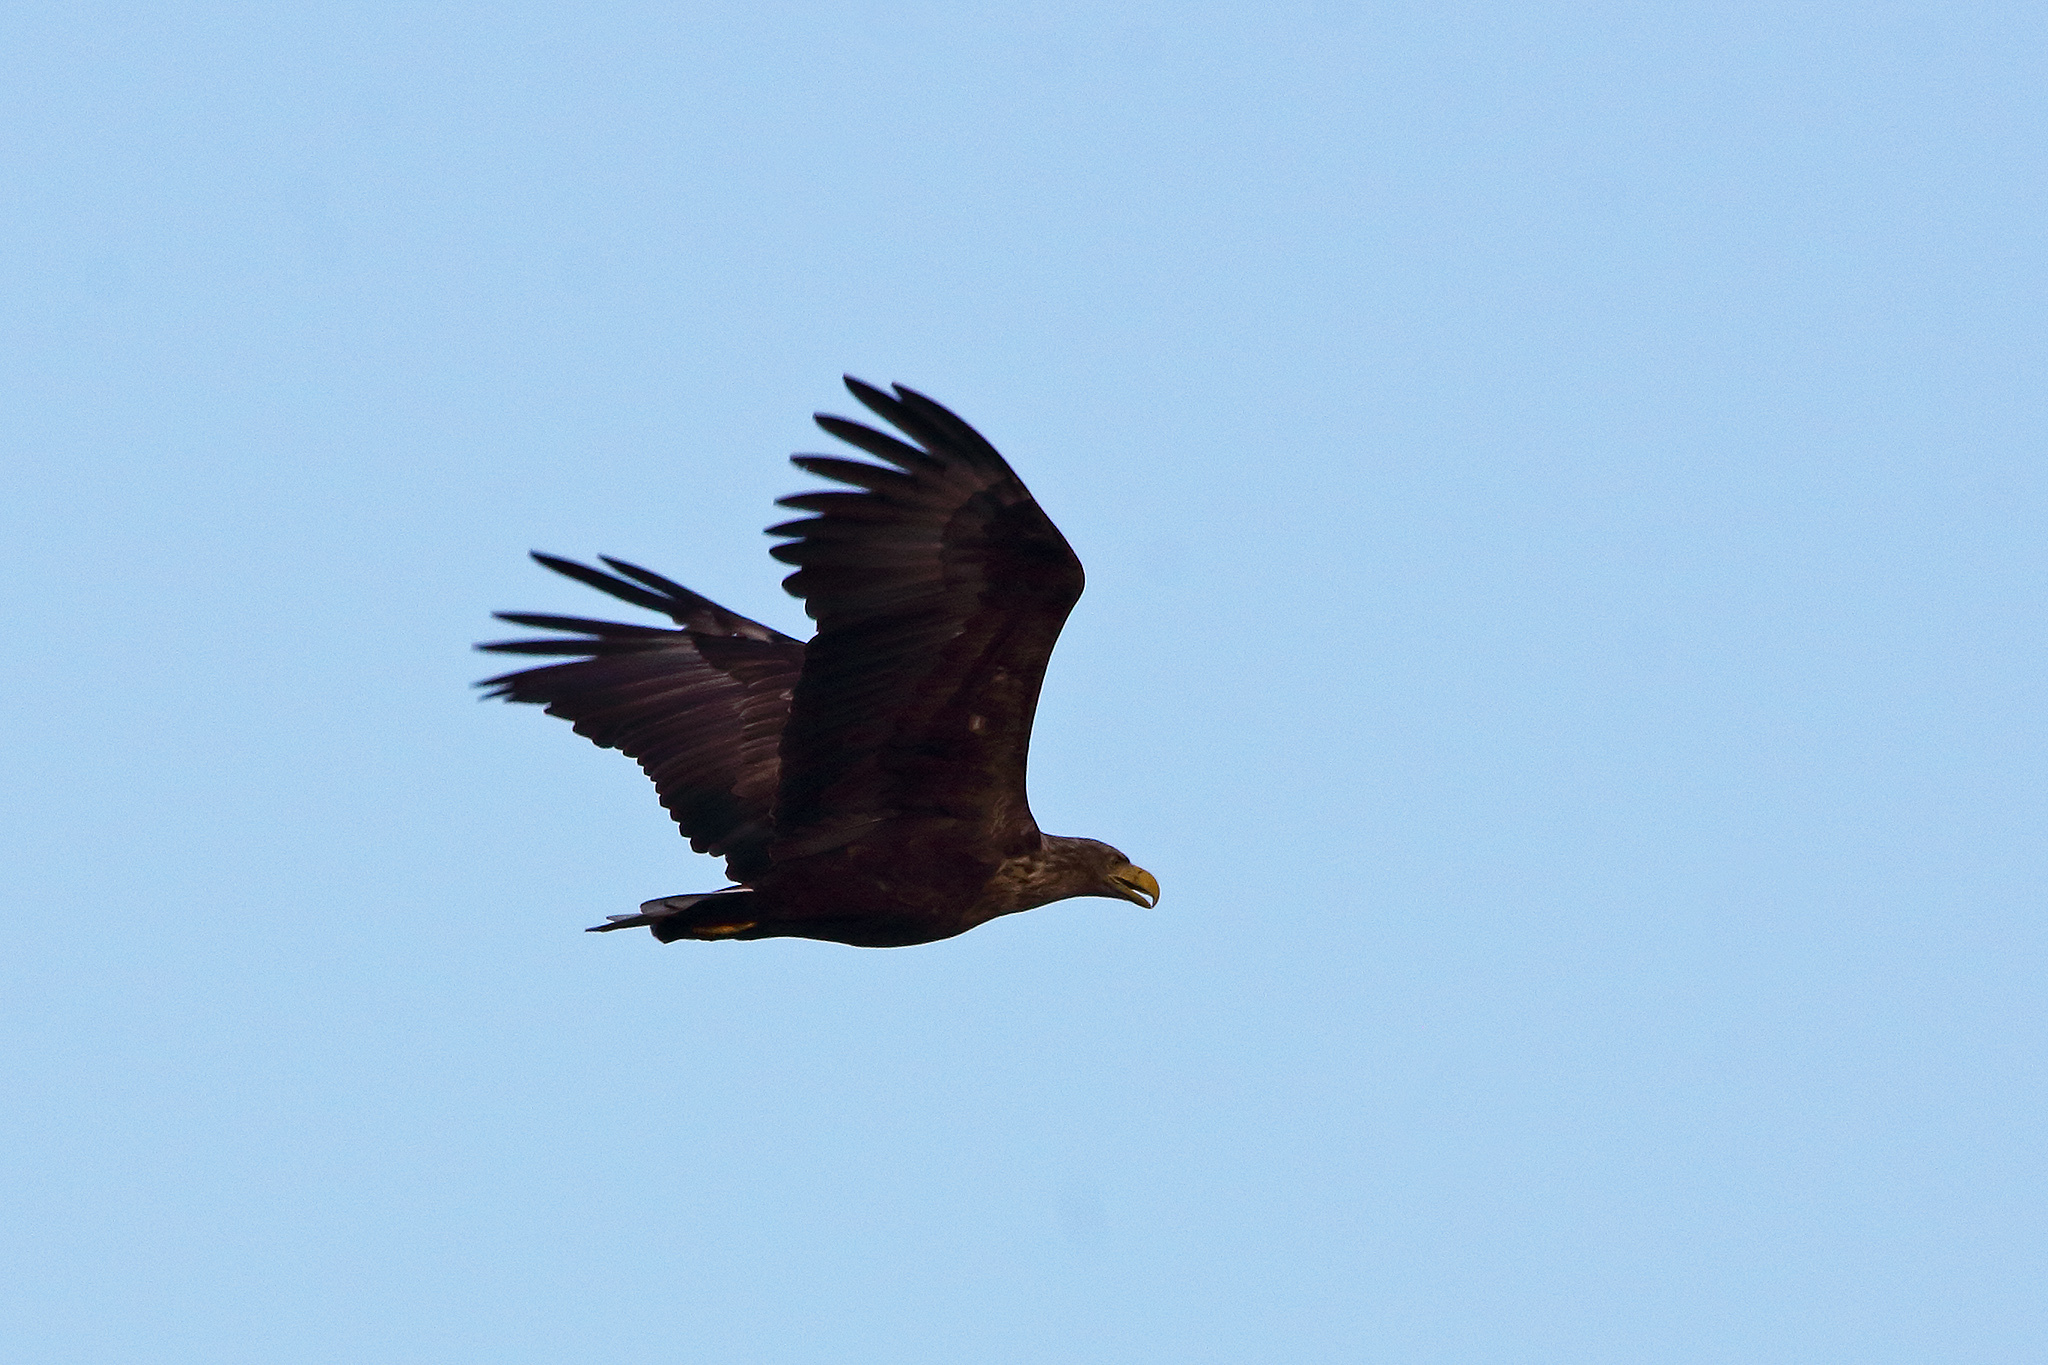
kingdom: Animalia
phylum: Chordata
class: Aves
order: Accipitriformes
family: Accipitridae
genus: Haliaeetus
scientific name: Haliaeetus albicilla
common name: White-tailed eagle
